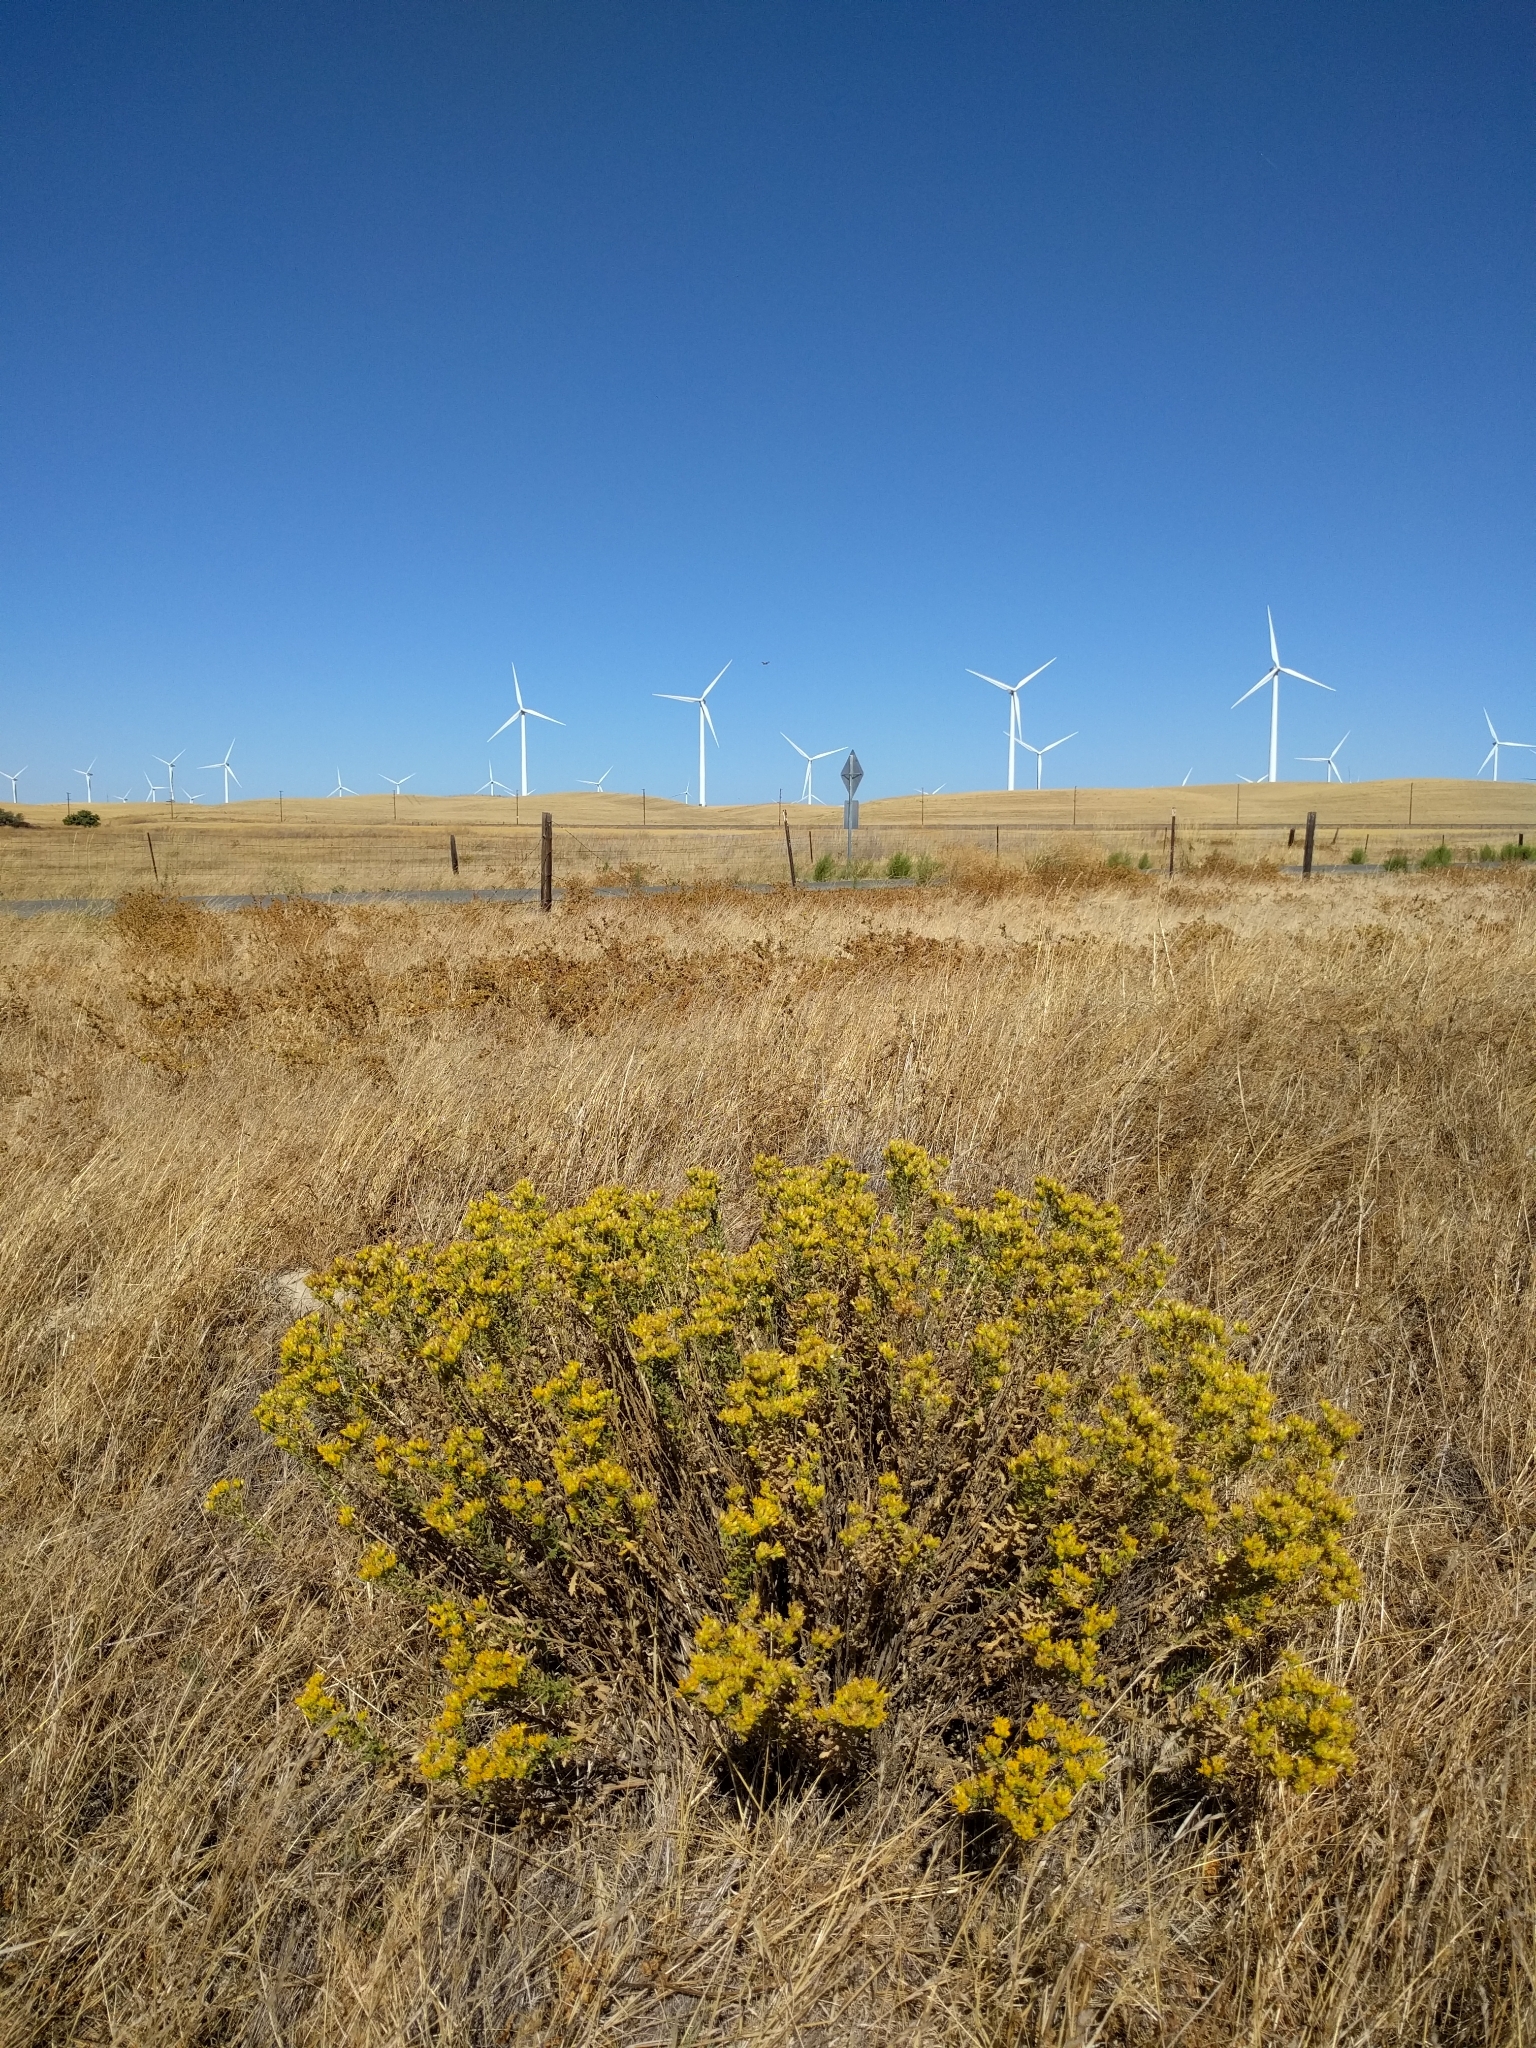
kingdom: Plantae
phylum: Tracheophyta
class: Magnoliopsida
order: Asterales
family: Asteraceae
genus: Isocoma
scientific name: Isocoma arguta
